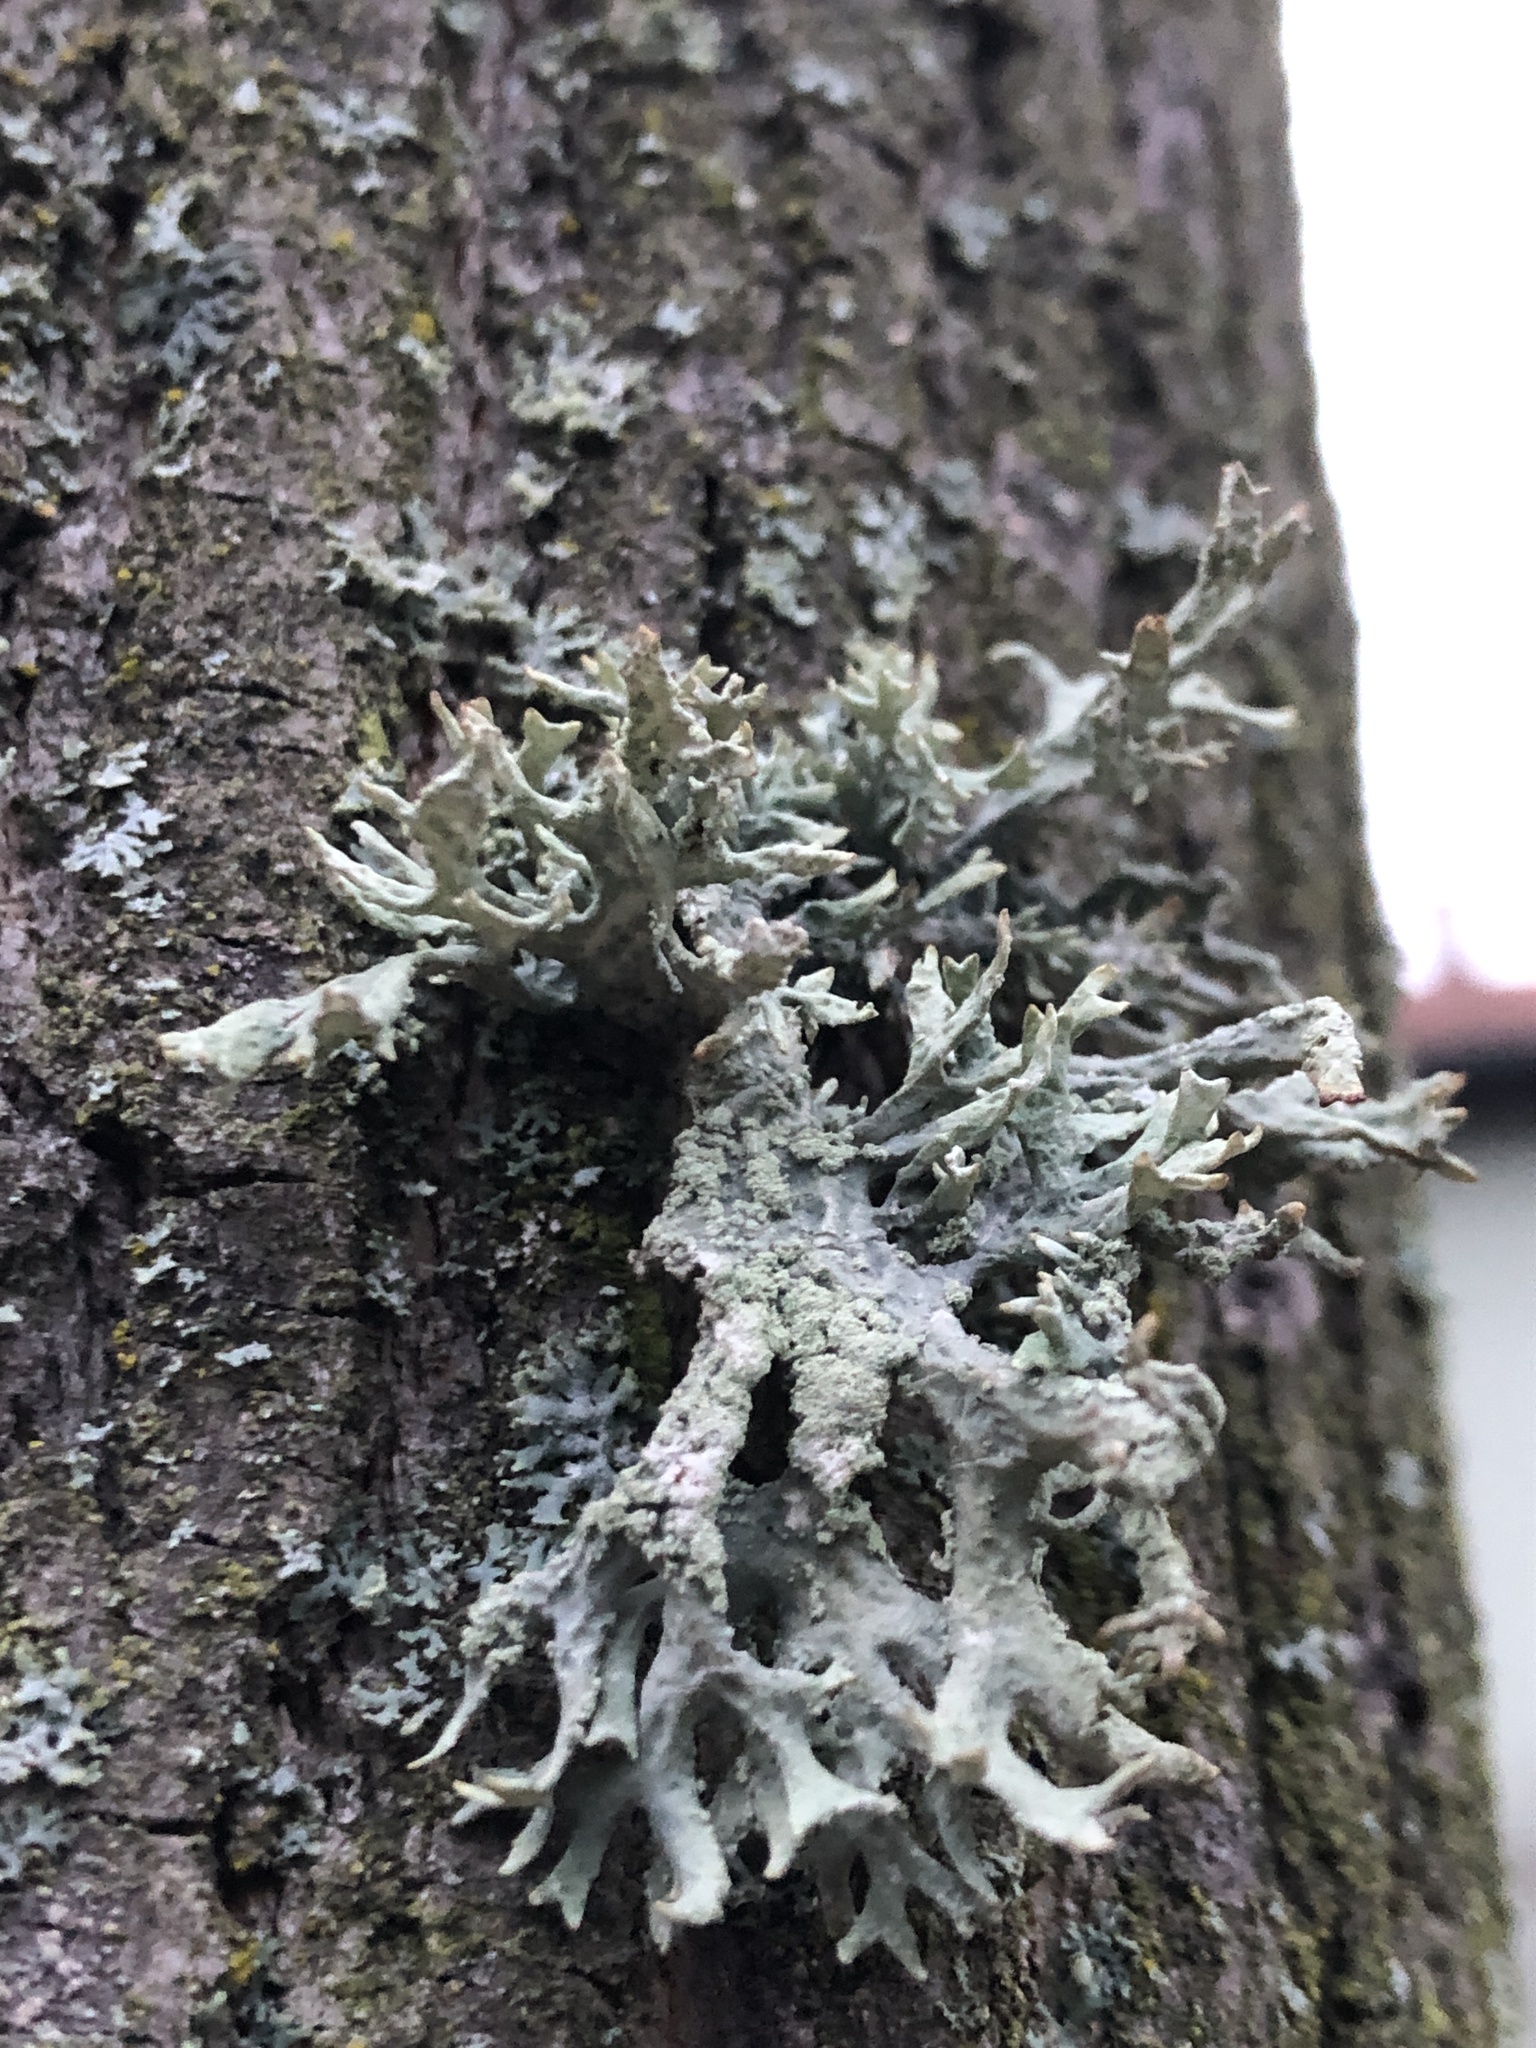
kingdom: Fungi
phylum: Ascomycota
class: Lecanoromycetes
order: Lecanorales
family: Parmeliaceae
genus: Evernia
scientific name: Evernia prunastri
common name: Oak moss
